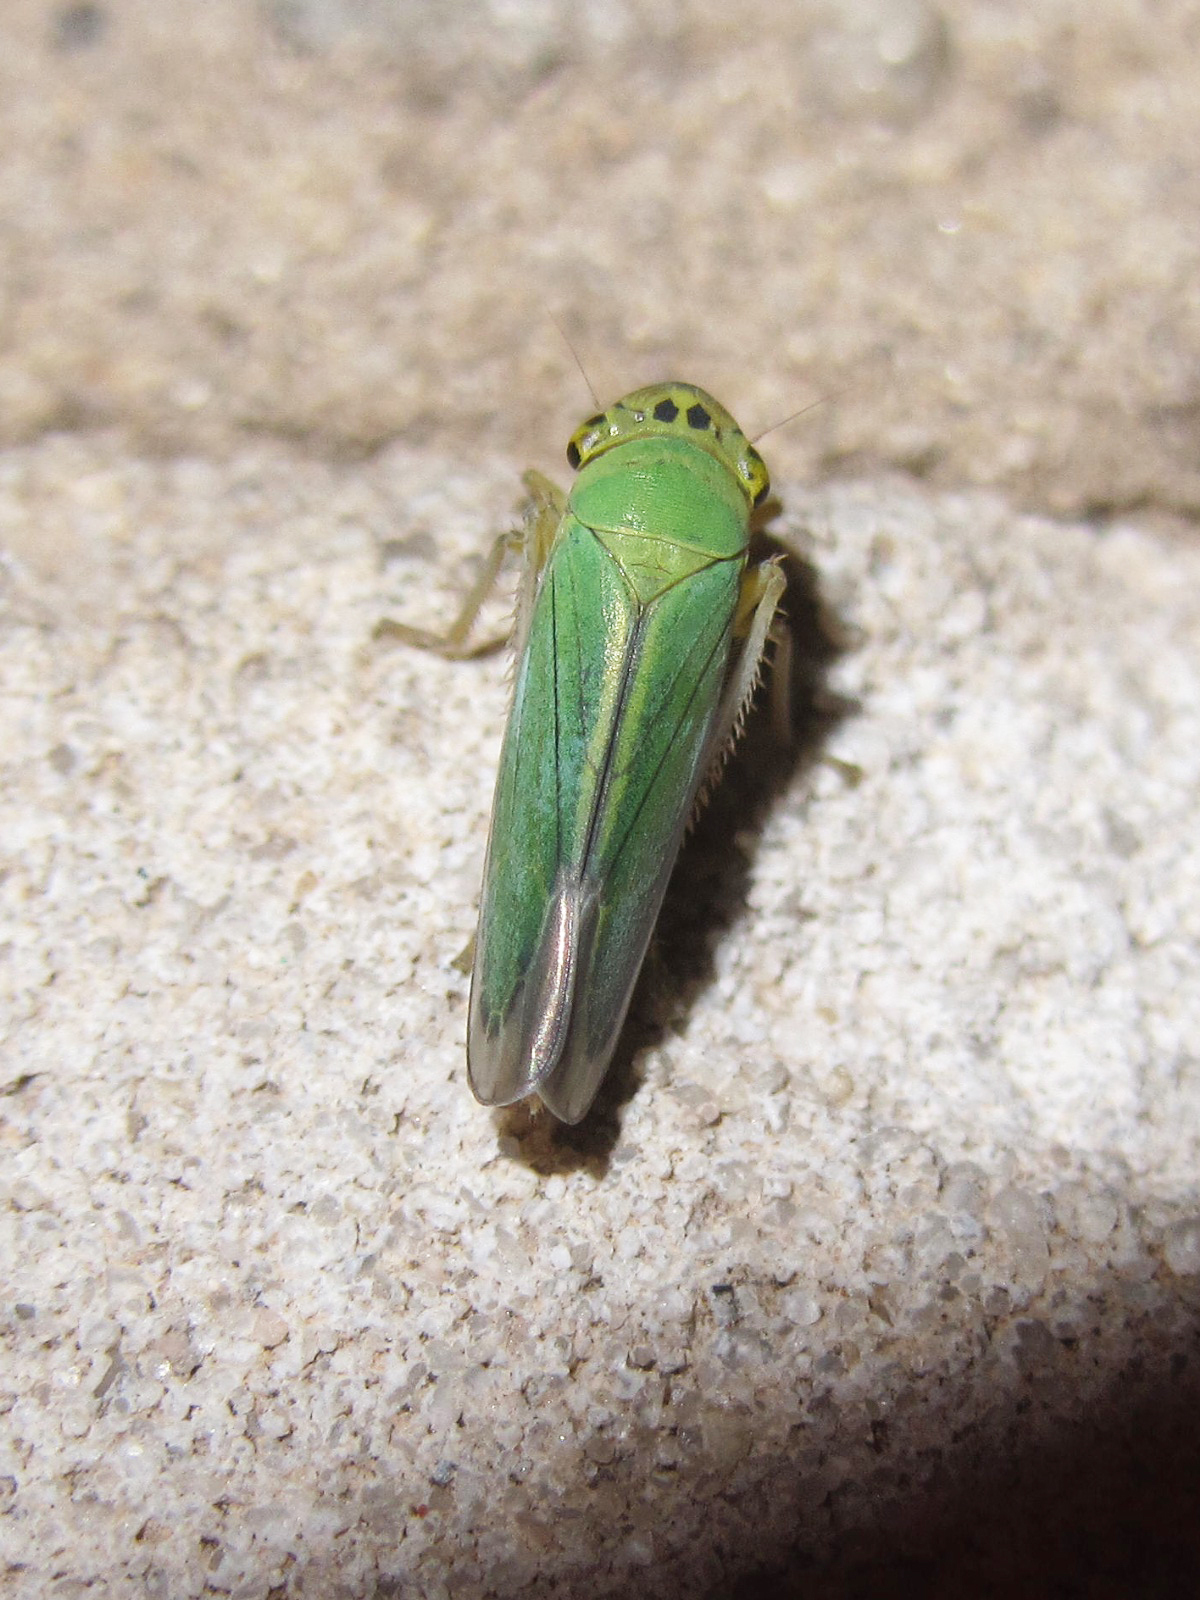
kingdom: Animalia
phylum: Arthropoda
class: Insecta
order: Hemiptera
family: Cicadellidae
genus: Cicadella
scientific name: Cicadella viridis
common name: Leafhopper
